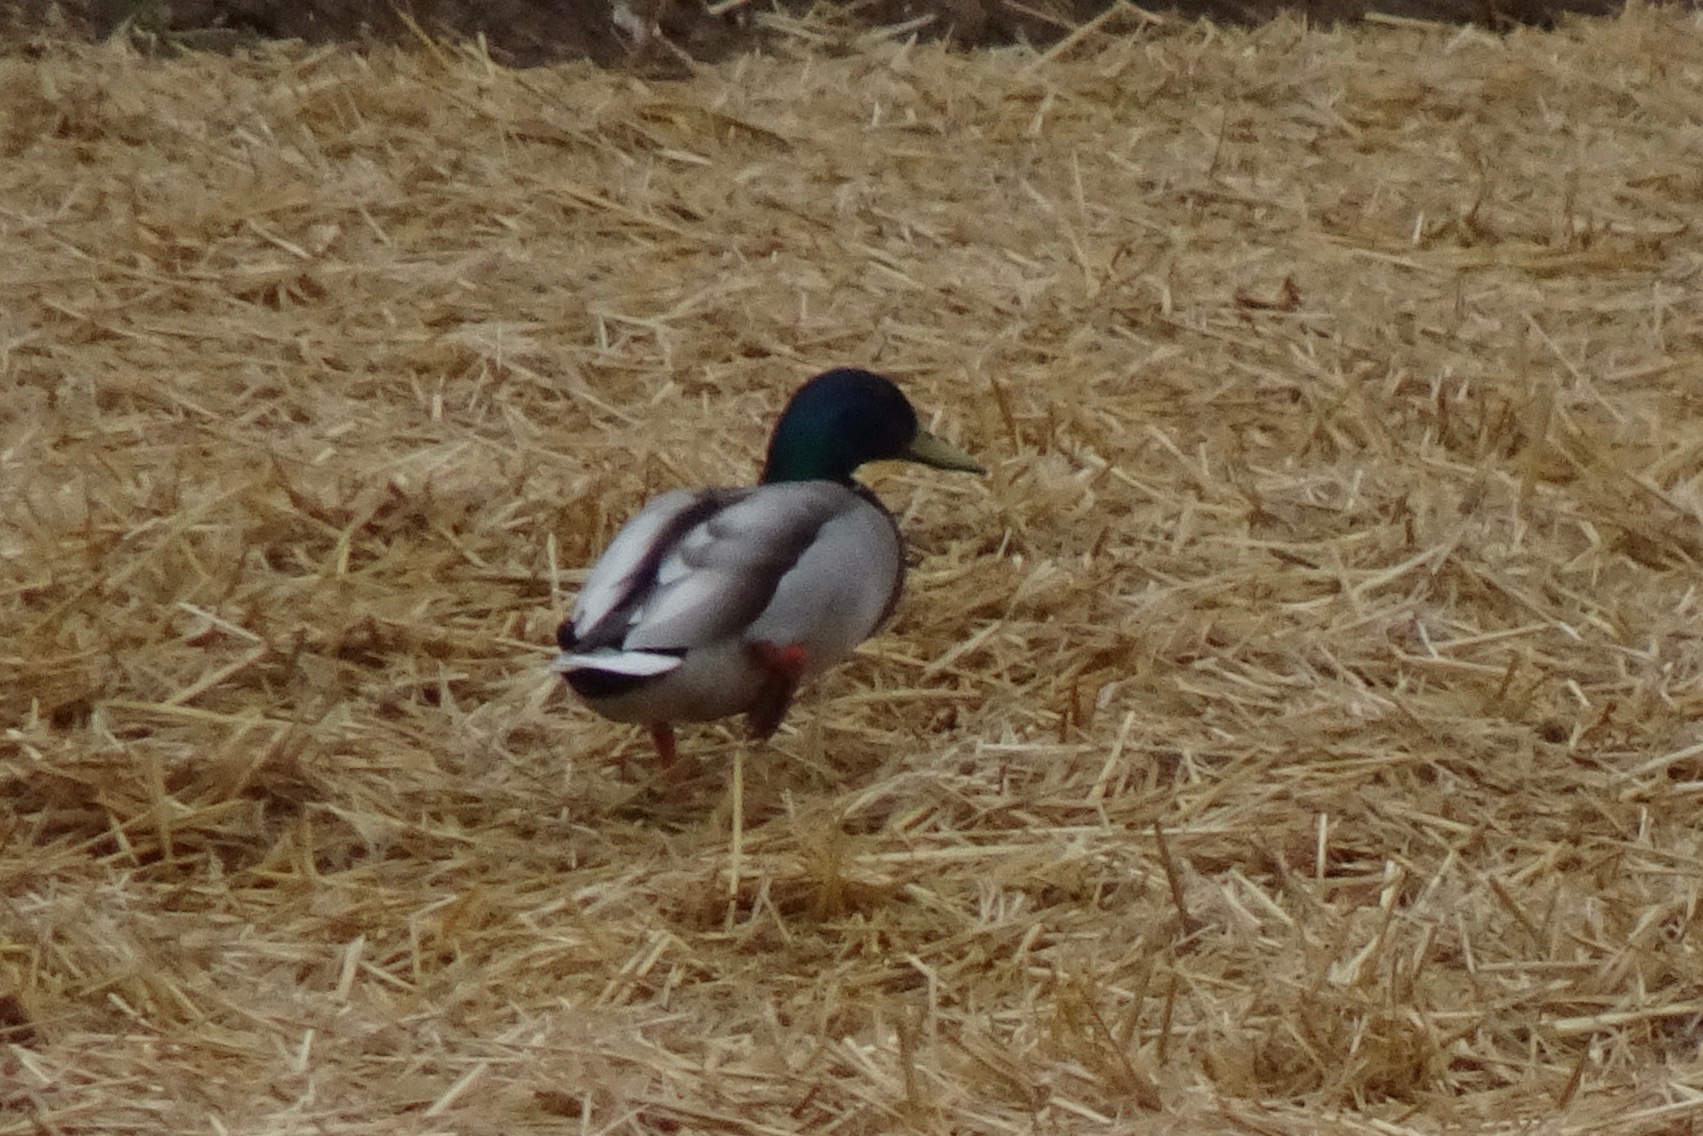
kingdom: Animalia
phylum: Chordata
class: Aves
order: Anseriformes
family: Anatidae
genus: Anas
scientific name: Anas platyrhynchos
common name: Mallard
